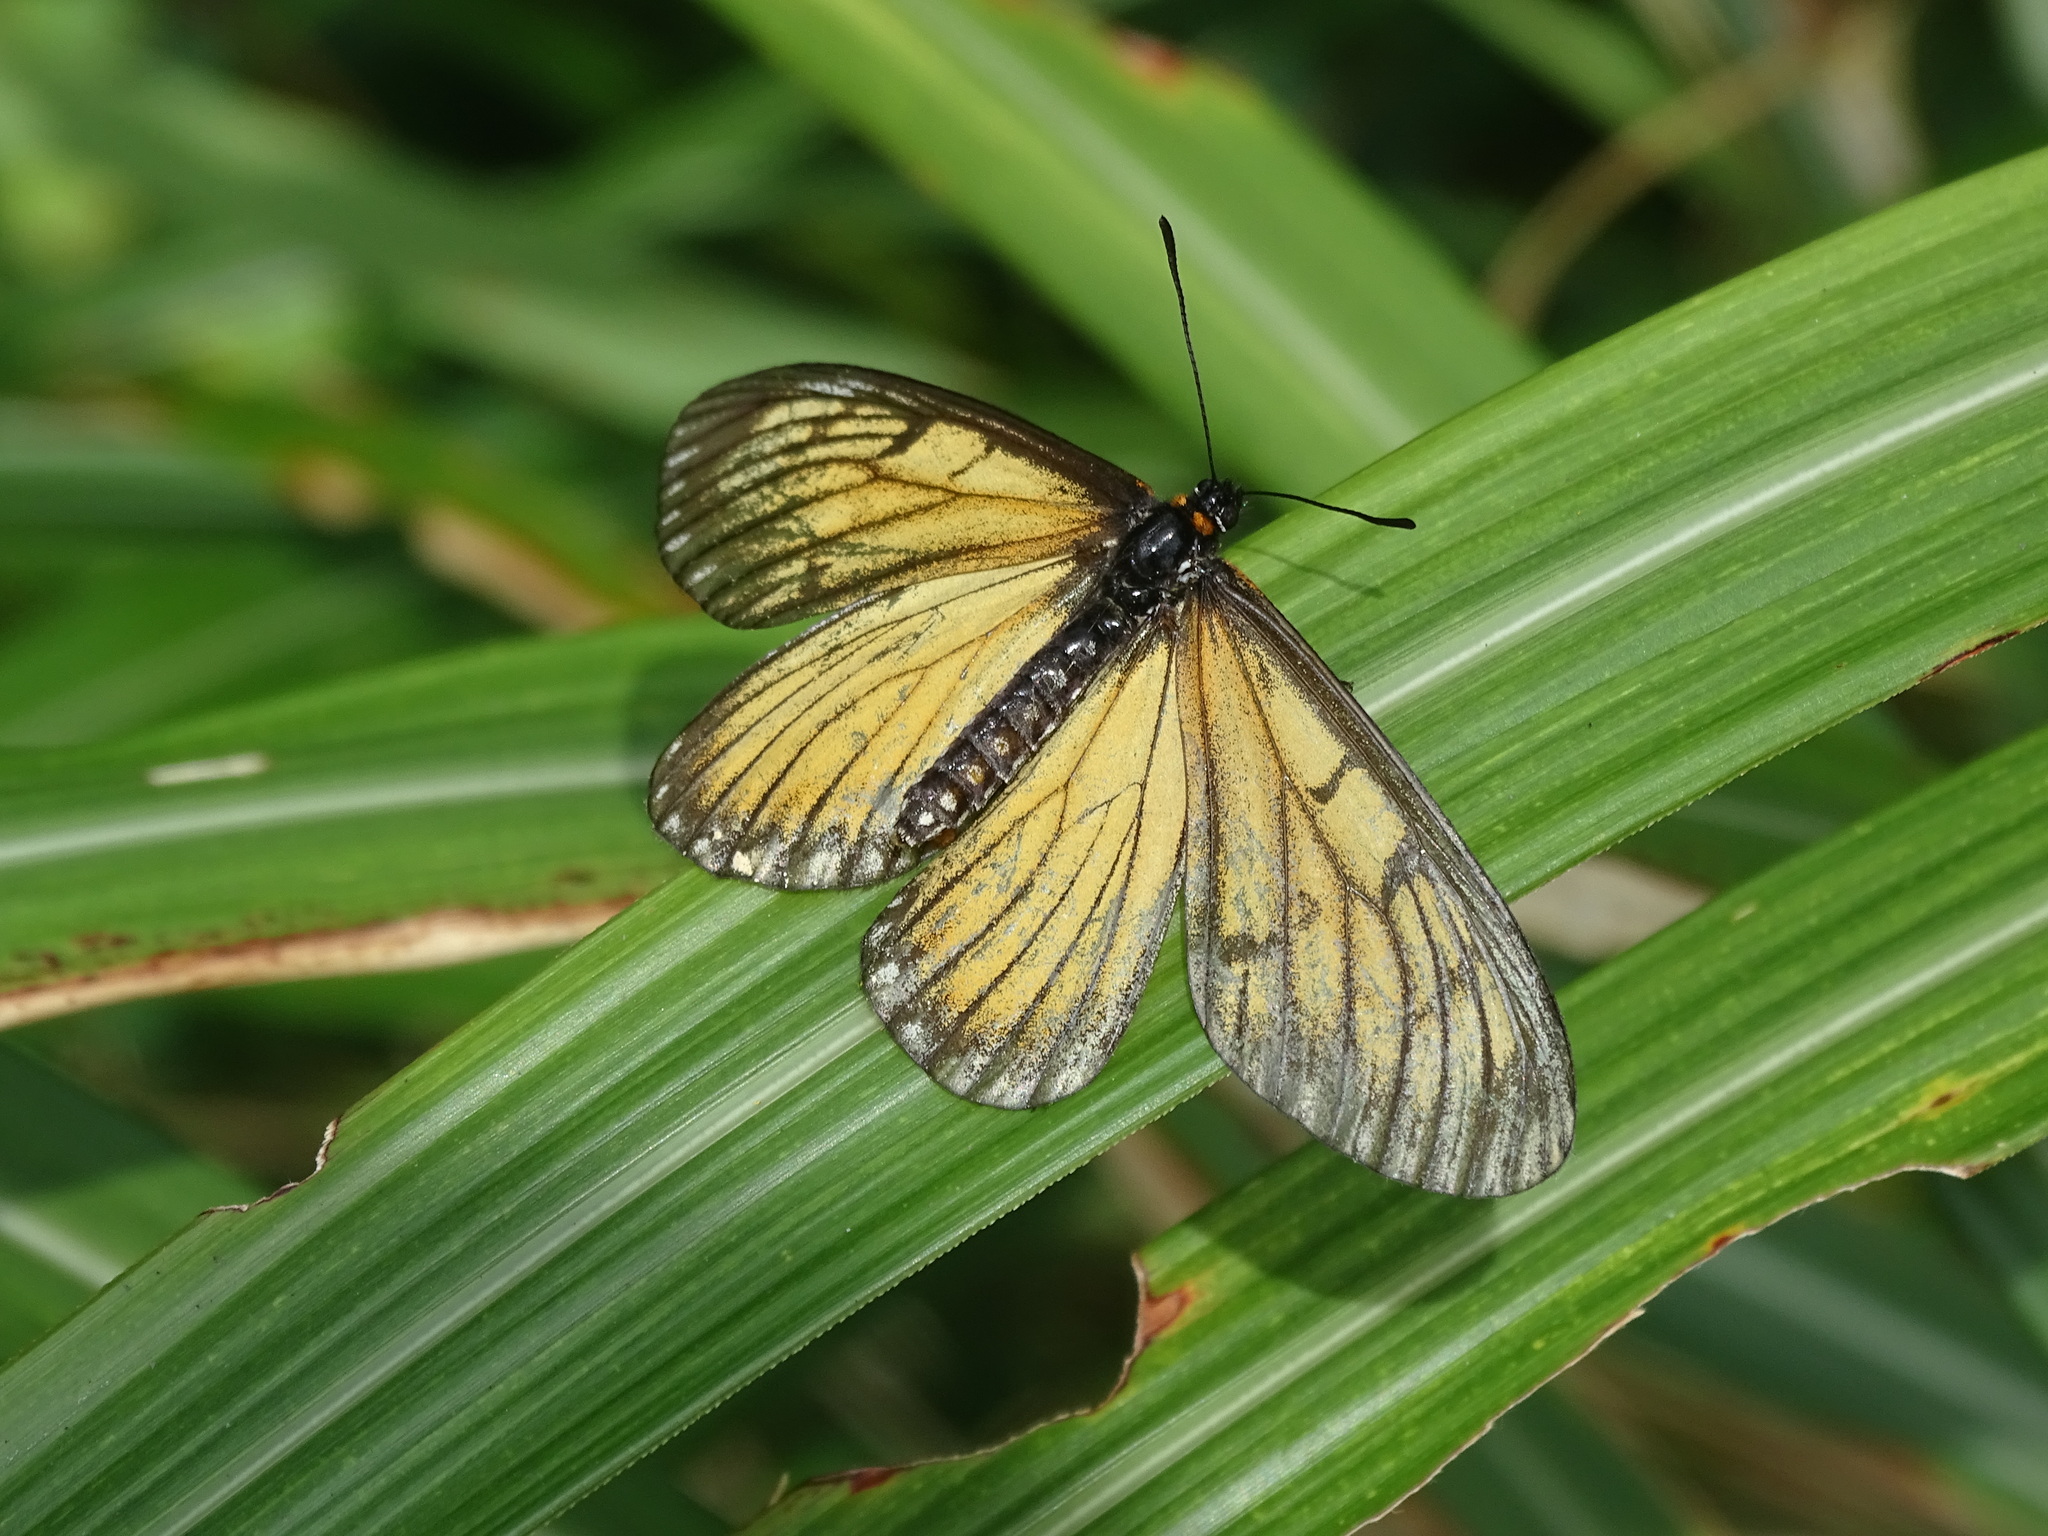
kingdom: Animalia
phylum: Arthropoda
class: Insecta
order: Lepidoptera
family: Nymphalidae
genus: Acraea
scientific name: Acraea Telchinia issoria
